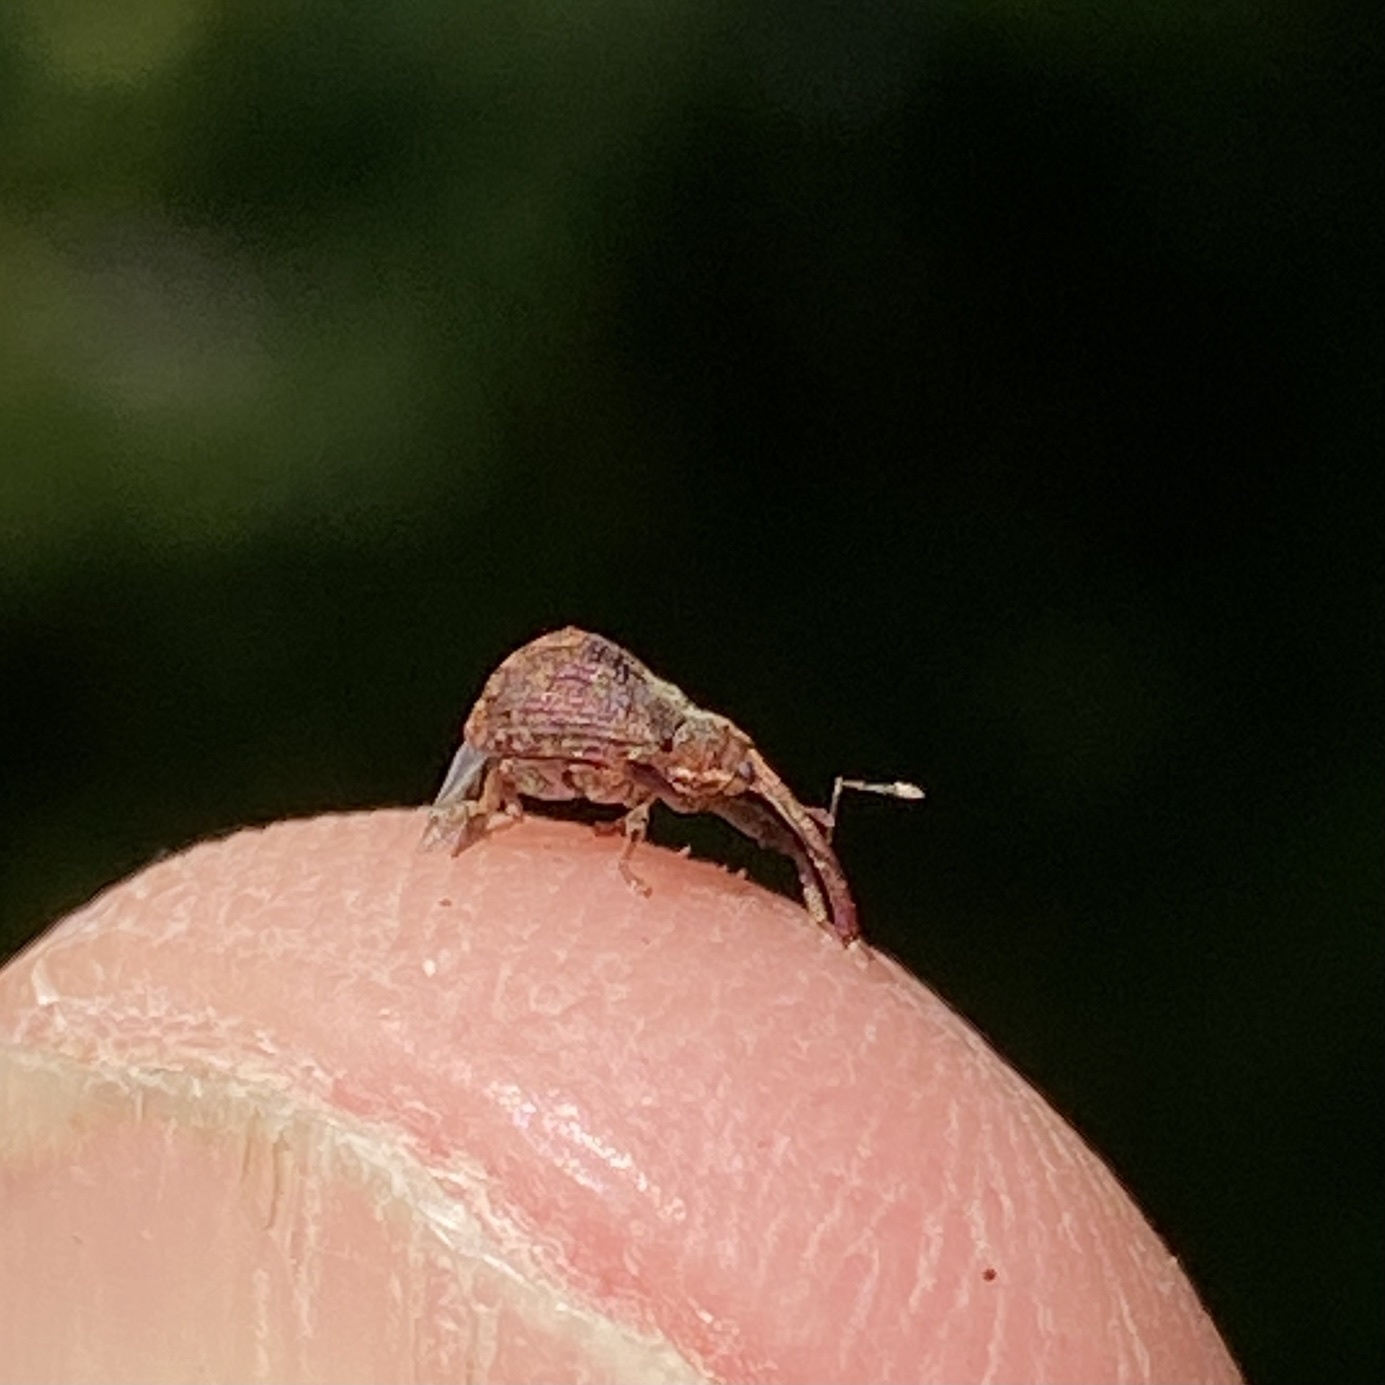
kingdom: Animalia
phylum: Arthropoda
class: Insecta
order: Coleoptera
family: Curculionidae
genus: Anthonomus
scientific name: Anthonomus quadrigibbus
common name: Apple curculio
